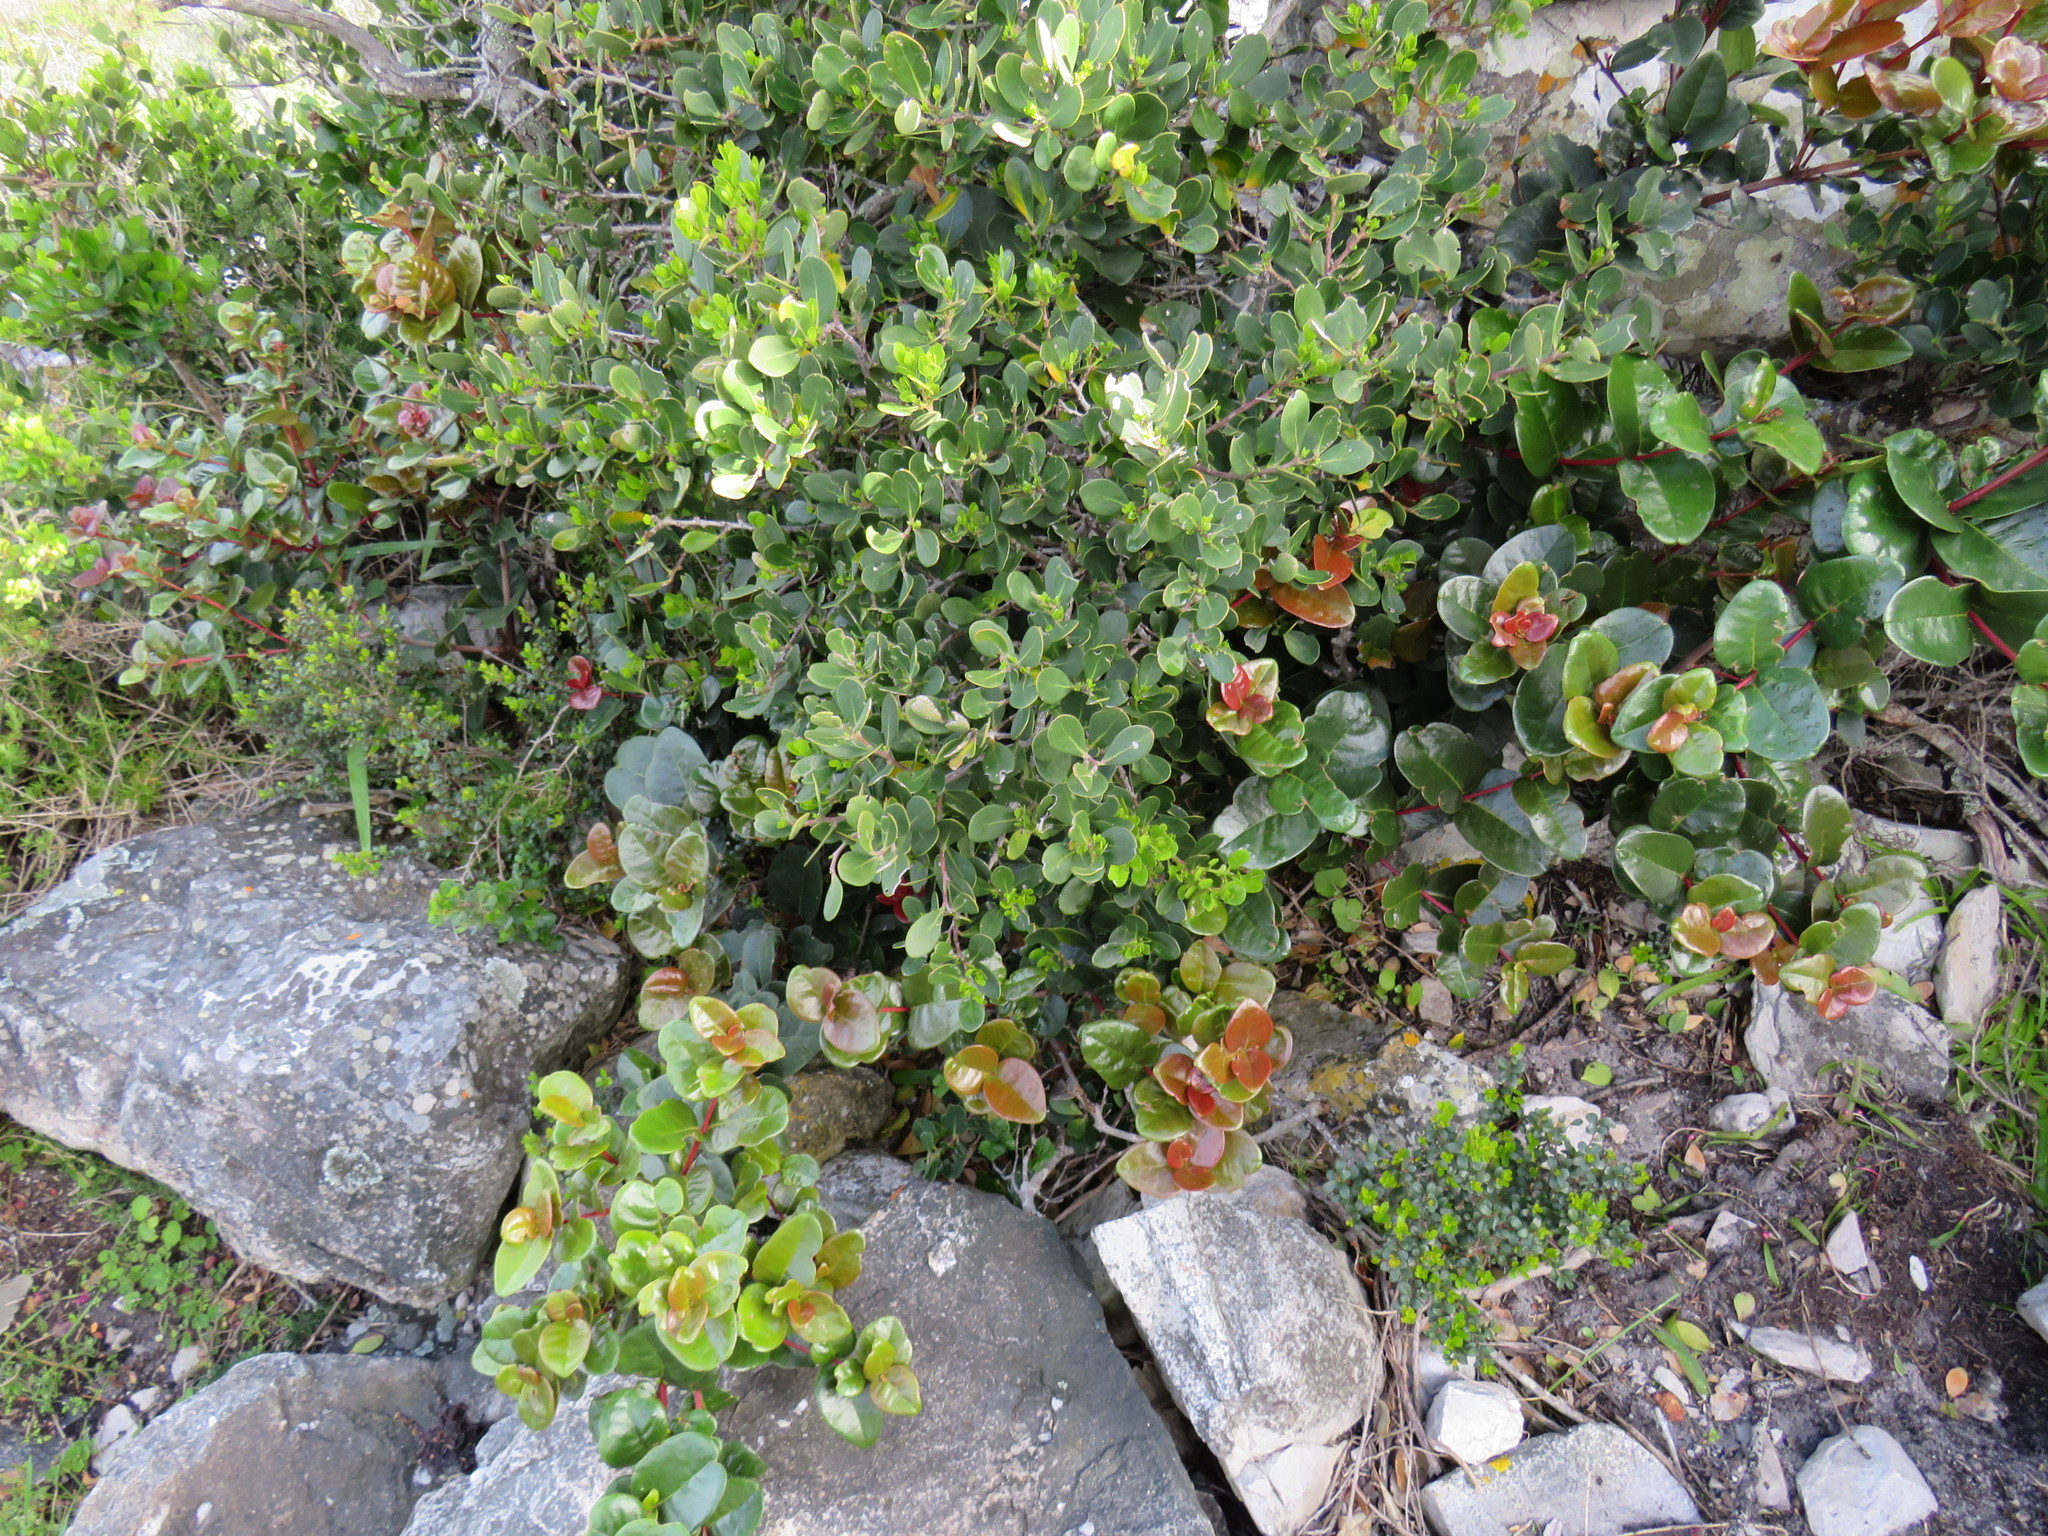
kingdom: Plantae
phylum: Tracheophyta
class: Magnoliopsida
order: Celastrales
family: Celastraceae
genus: Maurocenia
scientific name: Maurocenia frangula
